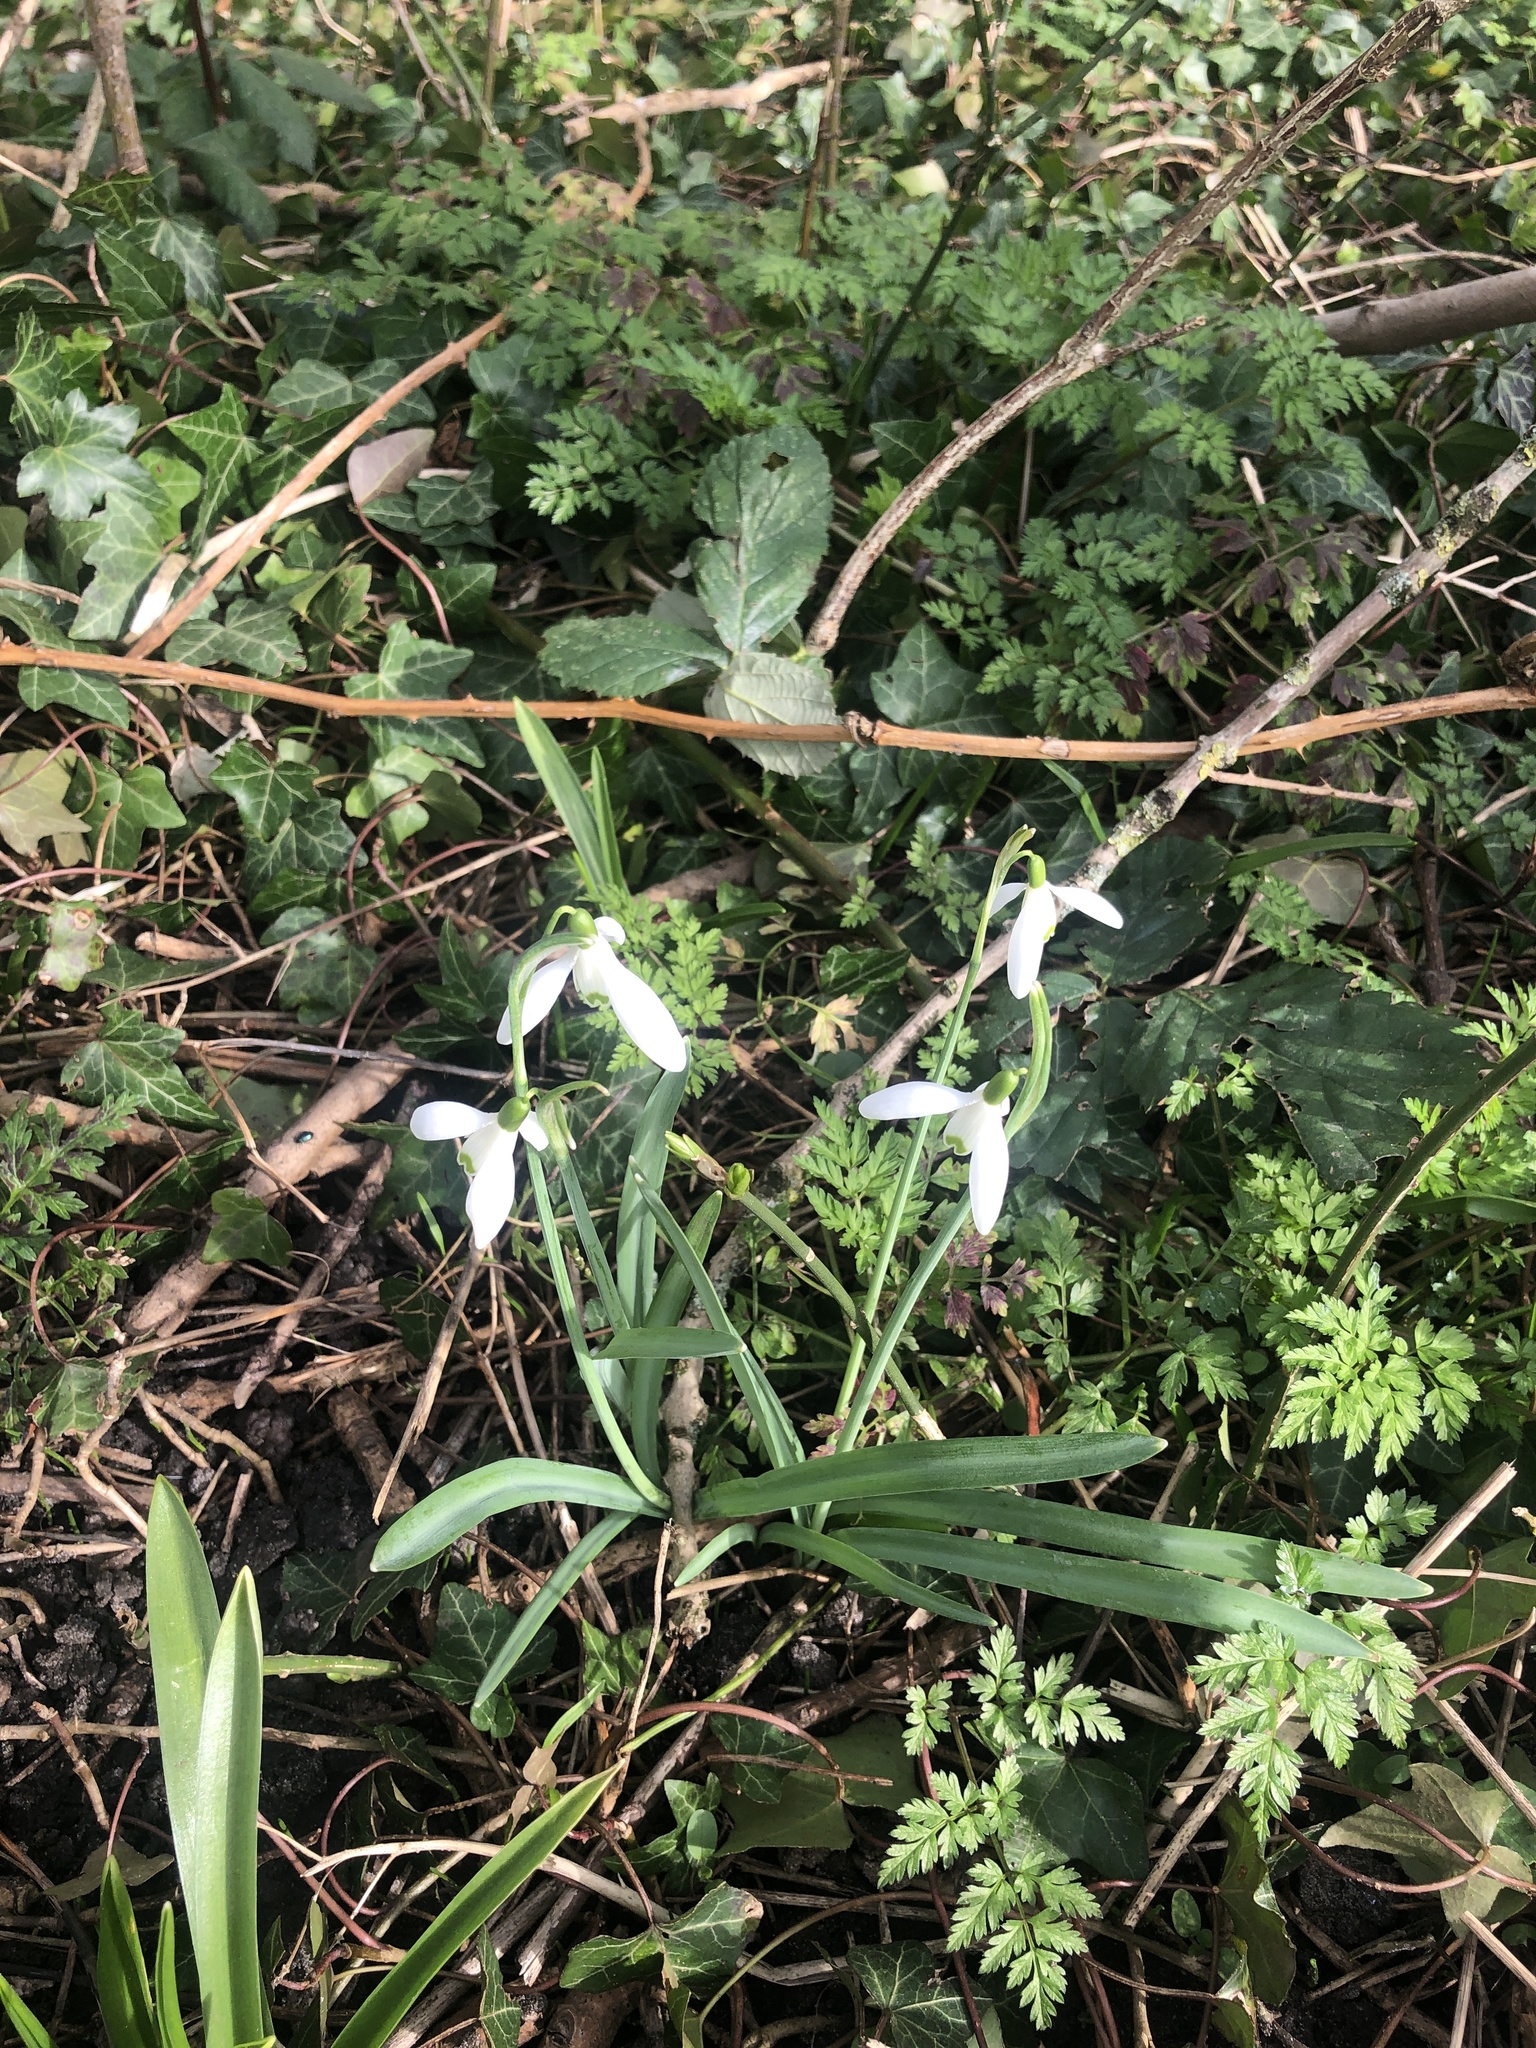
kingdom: Plantae
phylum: Tracheophyta
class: Liliopsida
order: Asparagales
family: Amaryllidaceae
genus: Galanthus
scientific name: Galanthus nivalis
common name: Snowdrop
